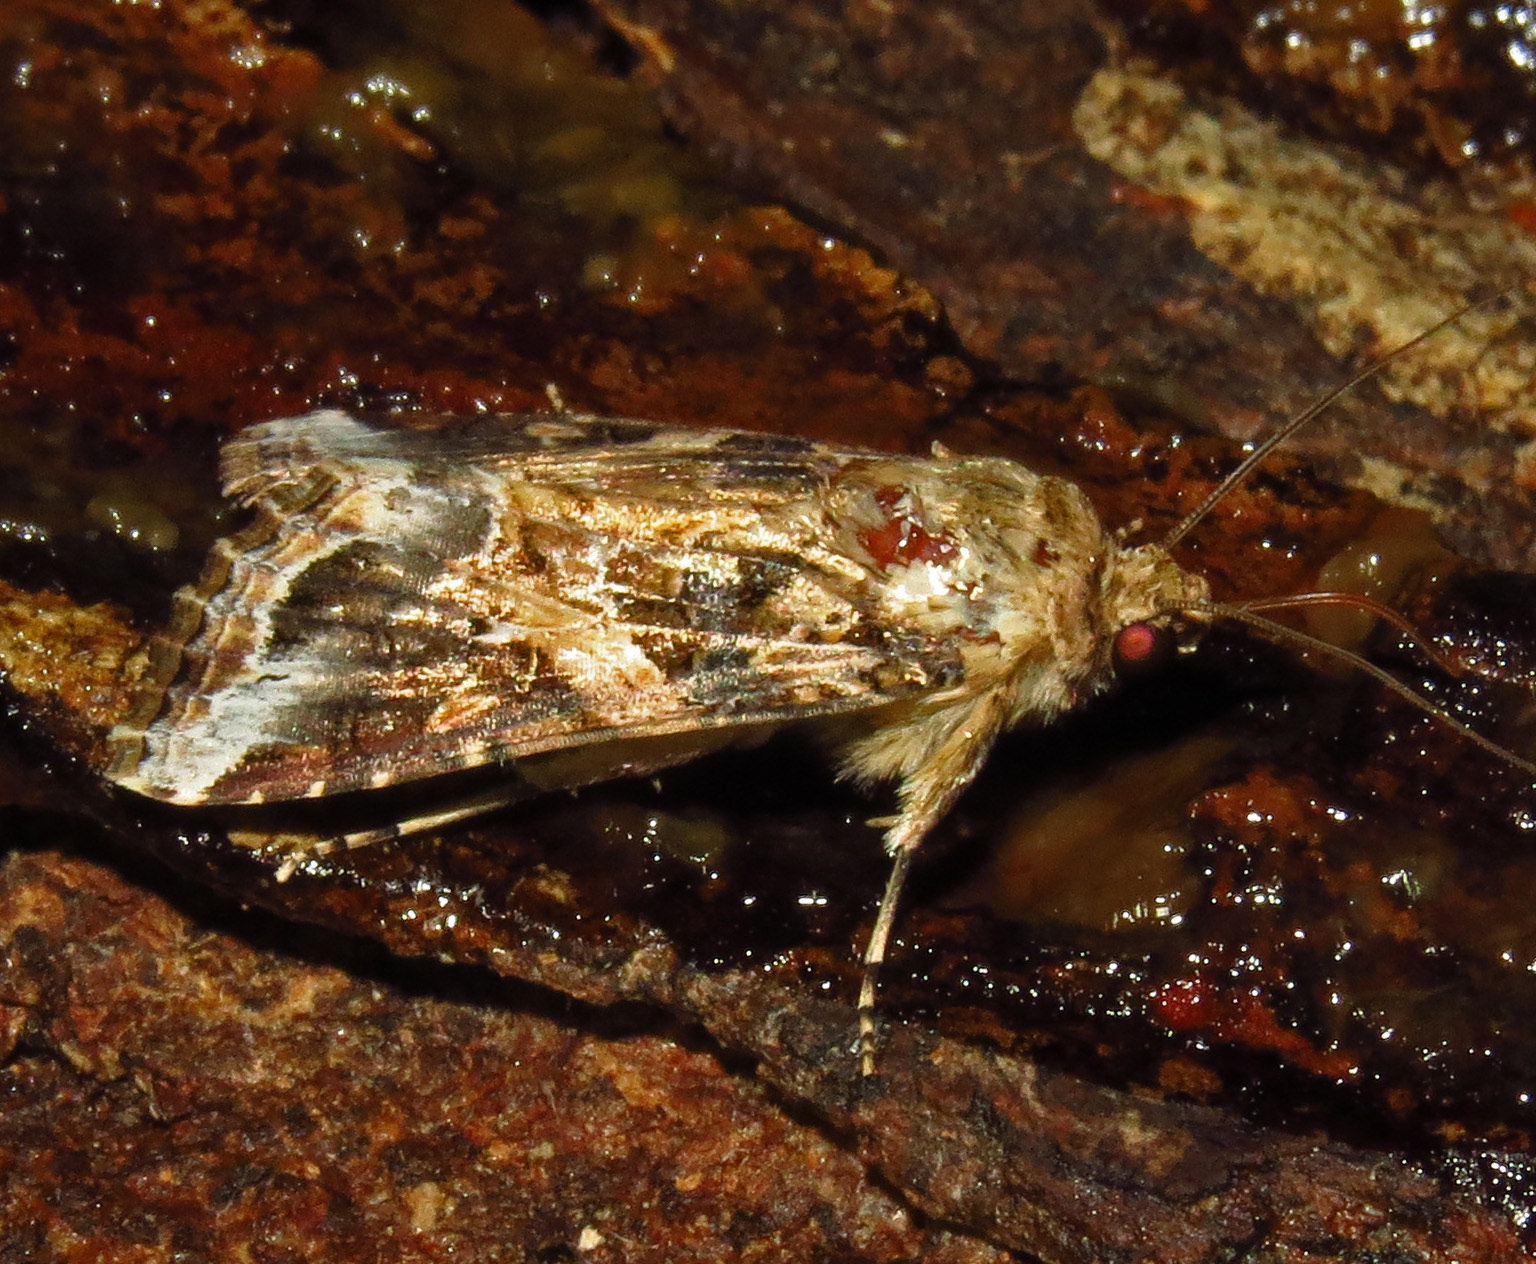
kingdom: Animalia
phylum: Arthropoda
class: Insecta
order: Lepidoptera
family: Noctuidae
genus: Spodoptera
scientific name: Spodoptera ornithogalli
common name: Yellow-striped armyworm
